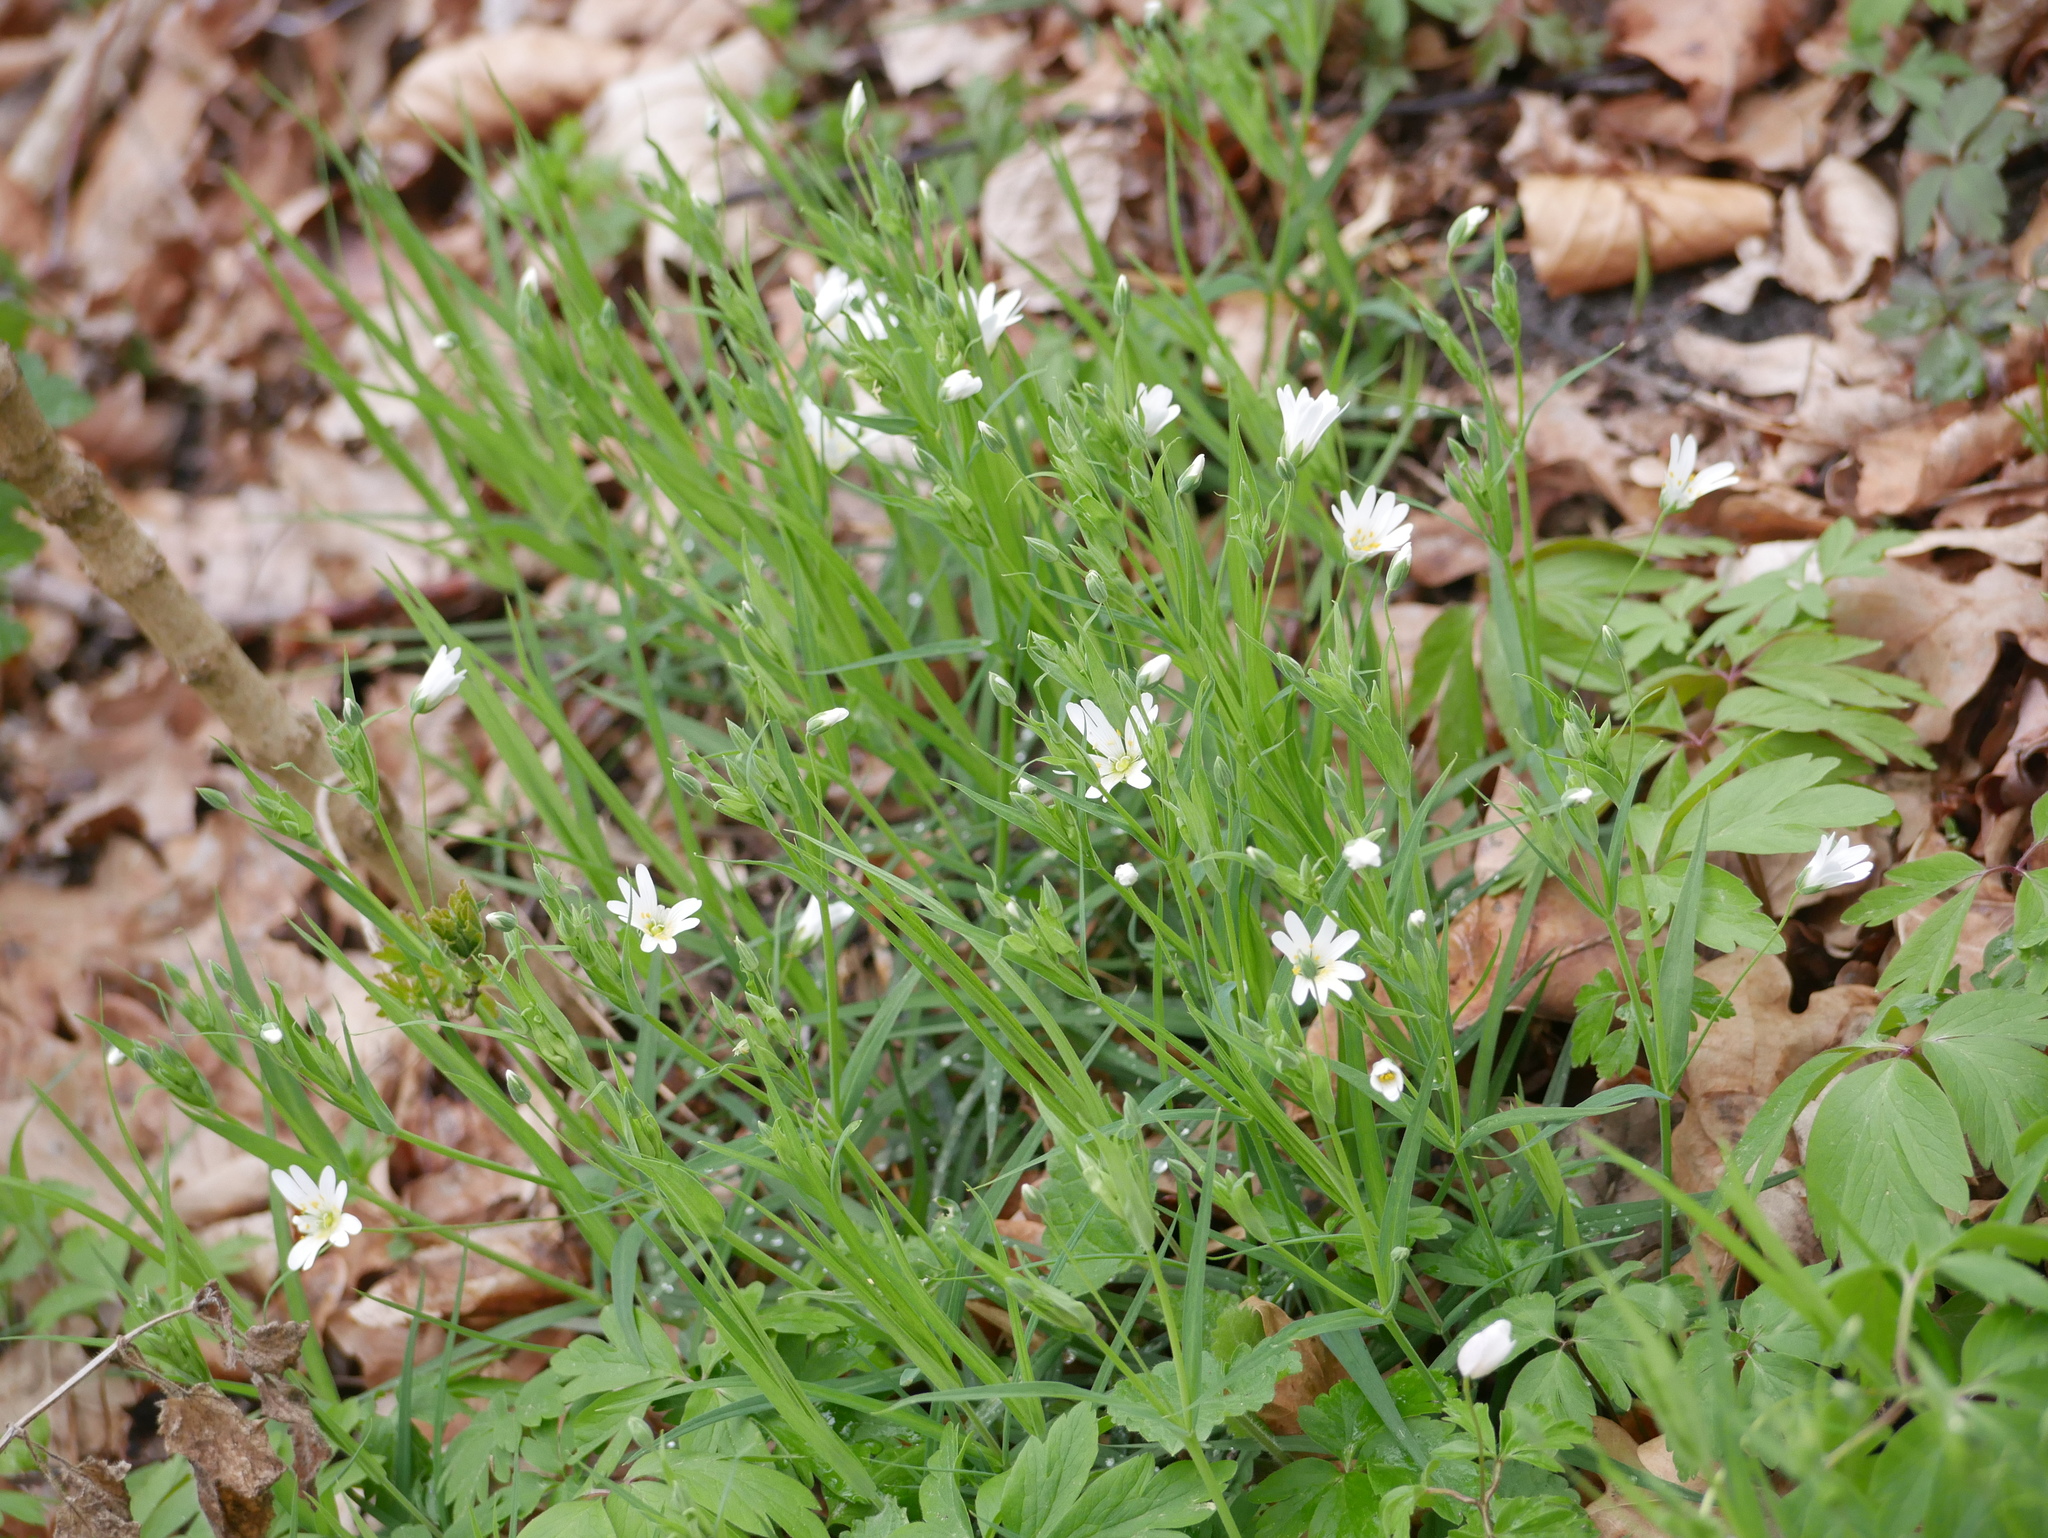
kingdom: Plantae
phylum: Tracheophyta
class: Magnoliopsida
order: Caryophyllales
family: Caryophyllaceae
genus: Rabelera
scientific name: Rabelera holostea
